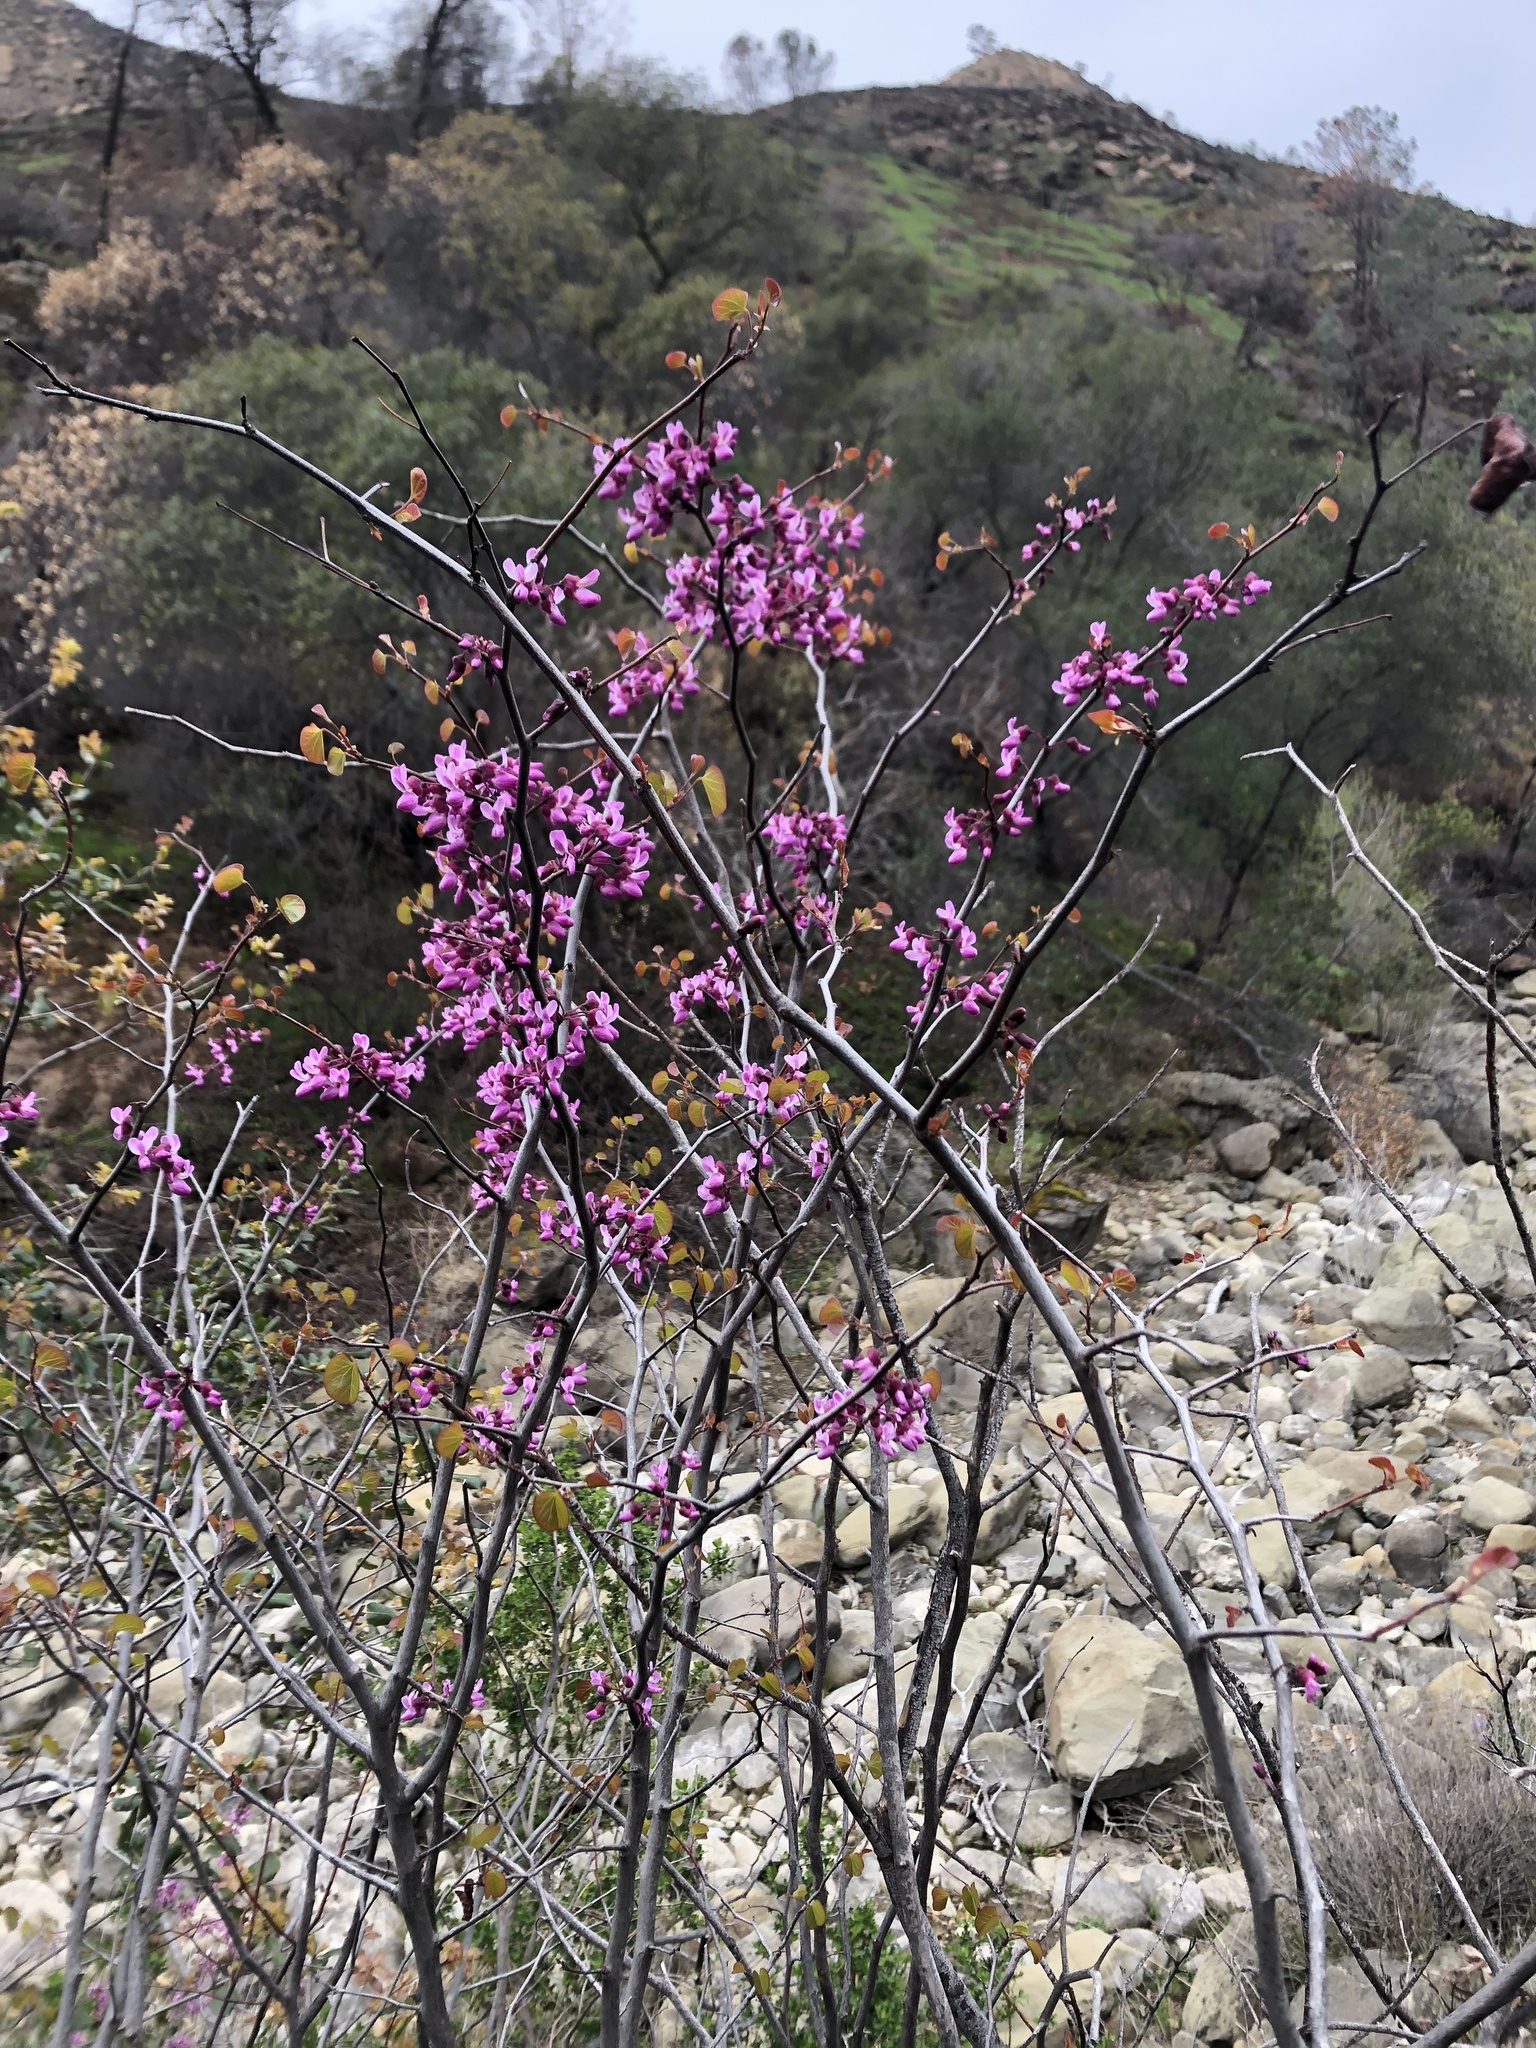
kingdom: Plantae
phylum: Tracheophyta
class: Magnoliopsida
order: Fabales
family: Fabaceae
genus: Cercis
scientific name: Cercis occidentalis
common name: California redbud
